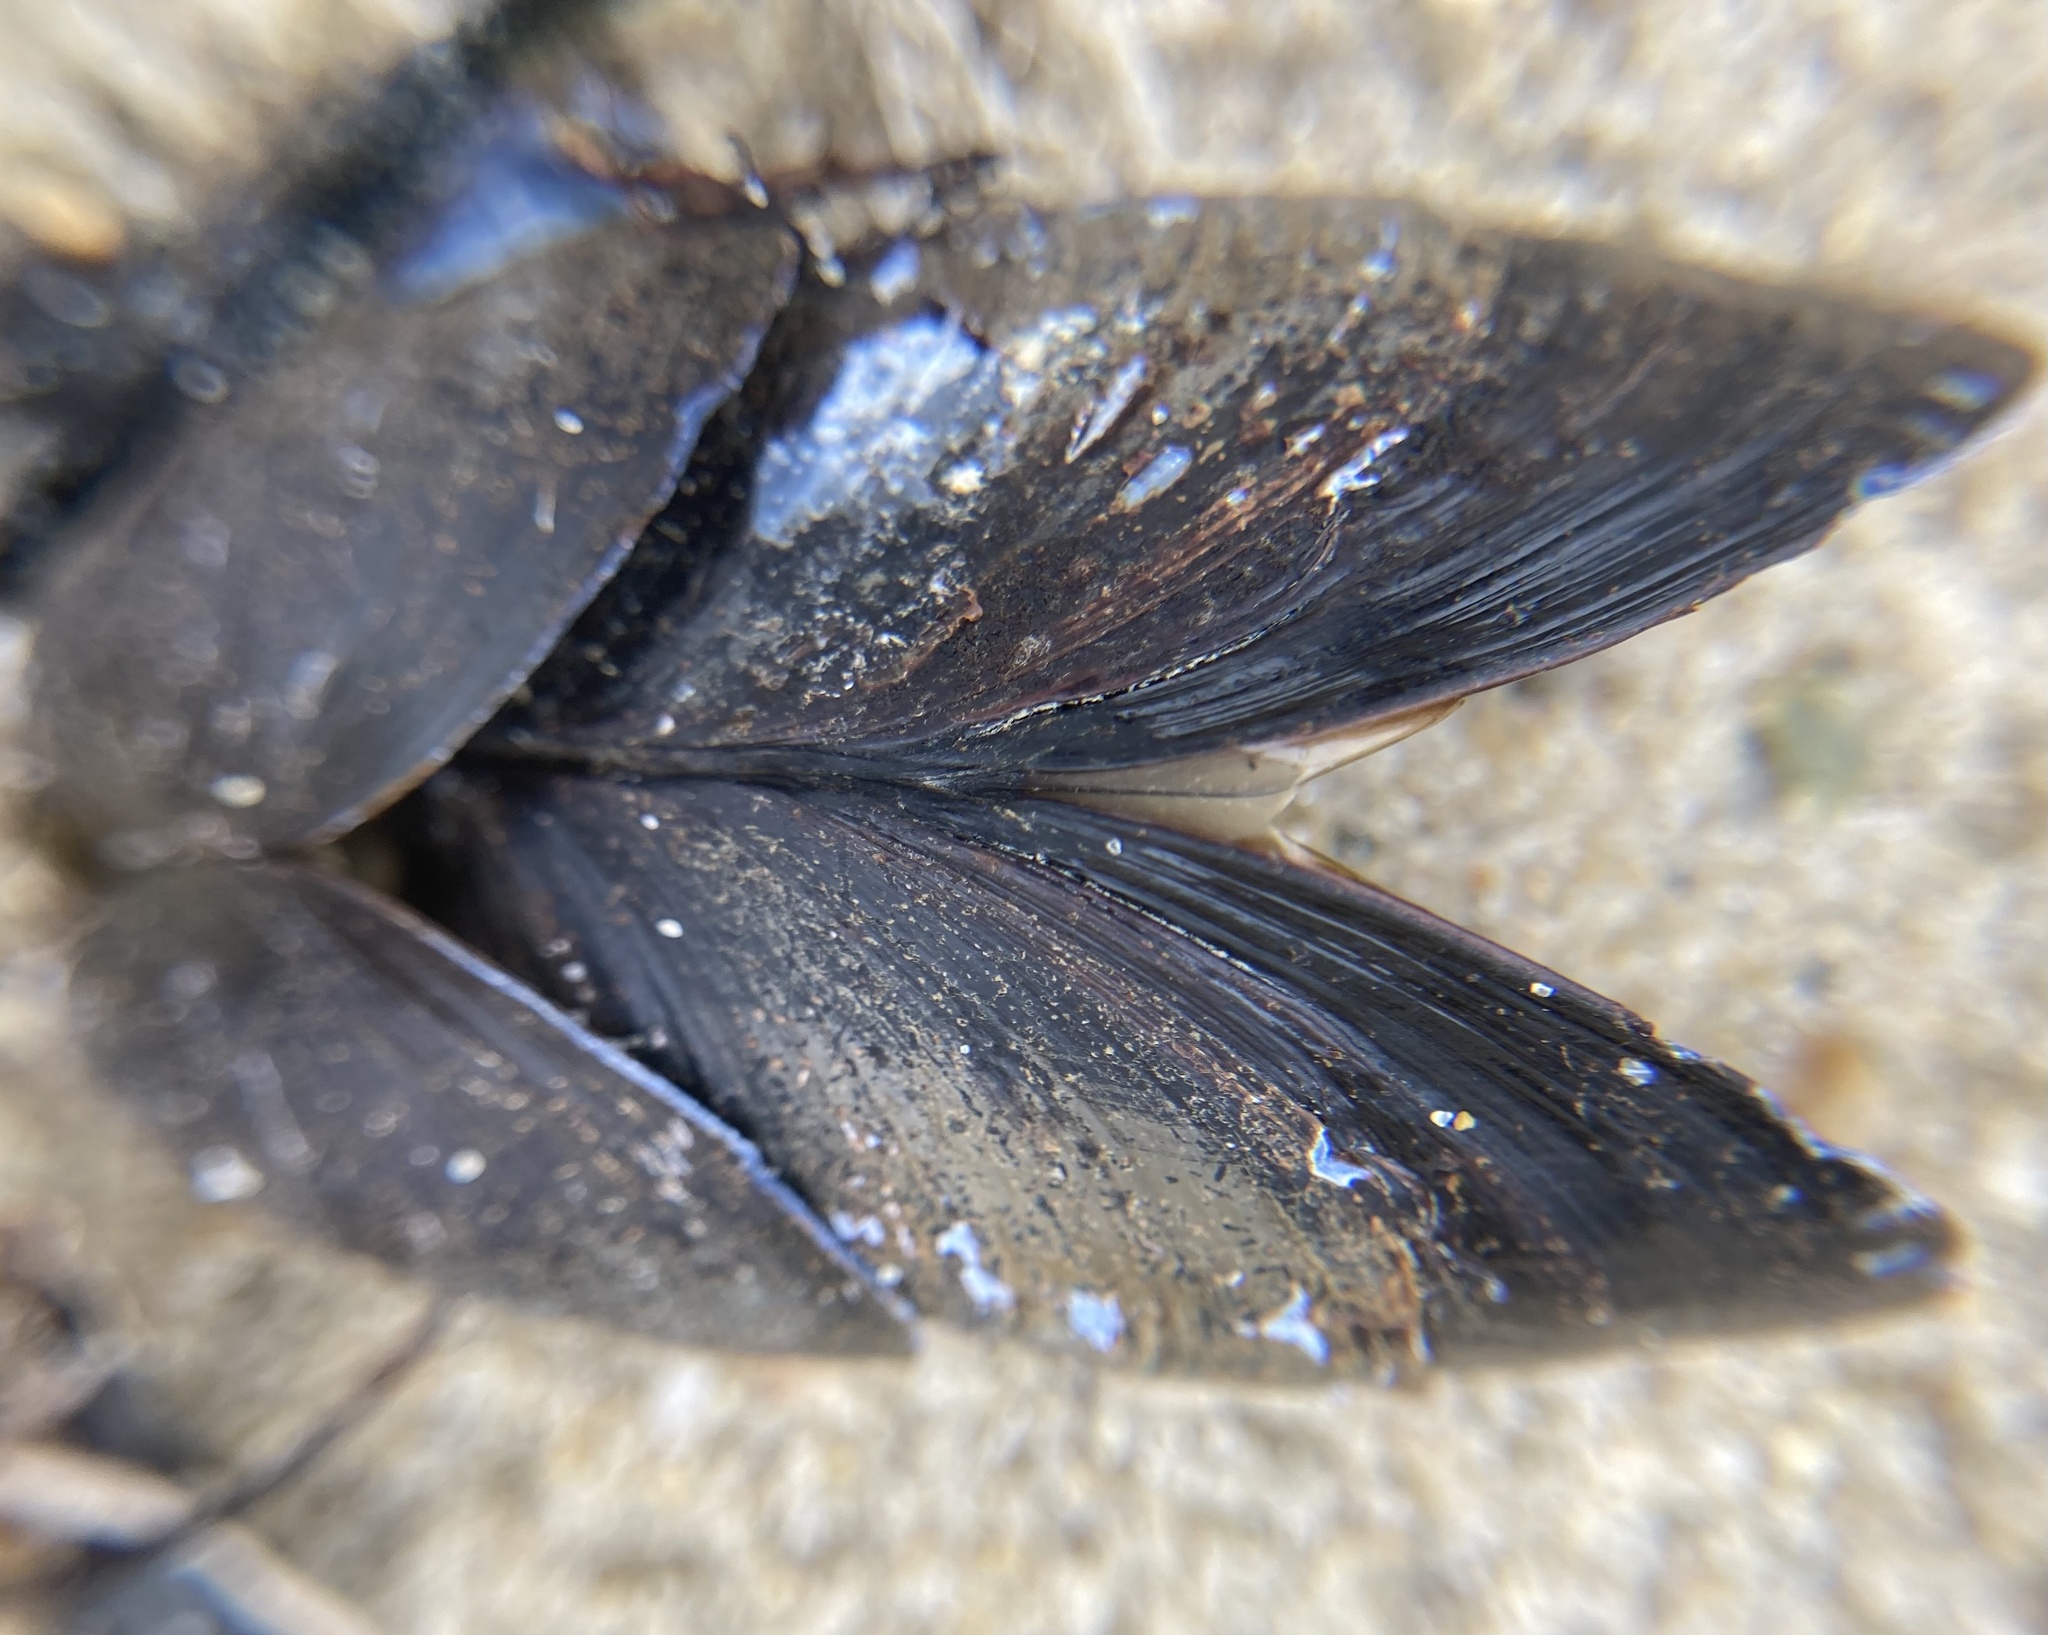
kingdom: Animalia
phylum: Mollusca
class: Bivalvia
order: Mytilida
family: Mytilidae
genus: Mytilus
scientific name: Mytilus edulis
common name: Blue mussel
